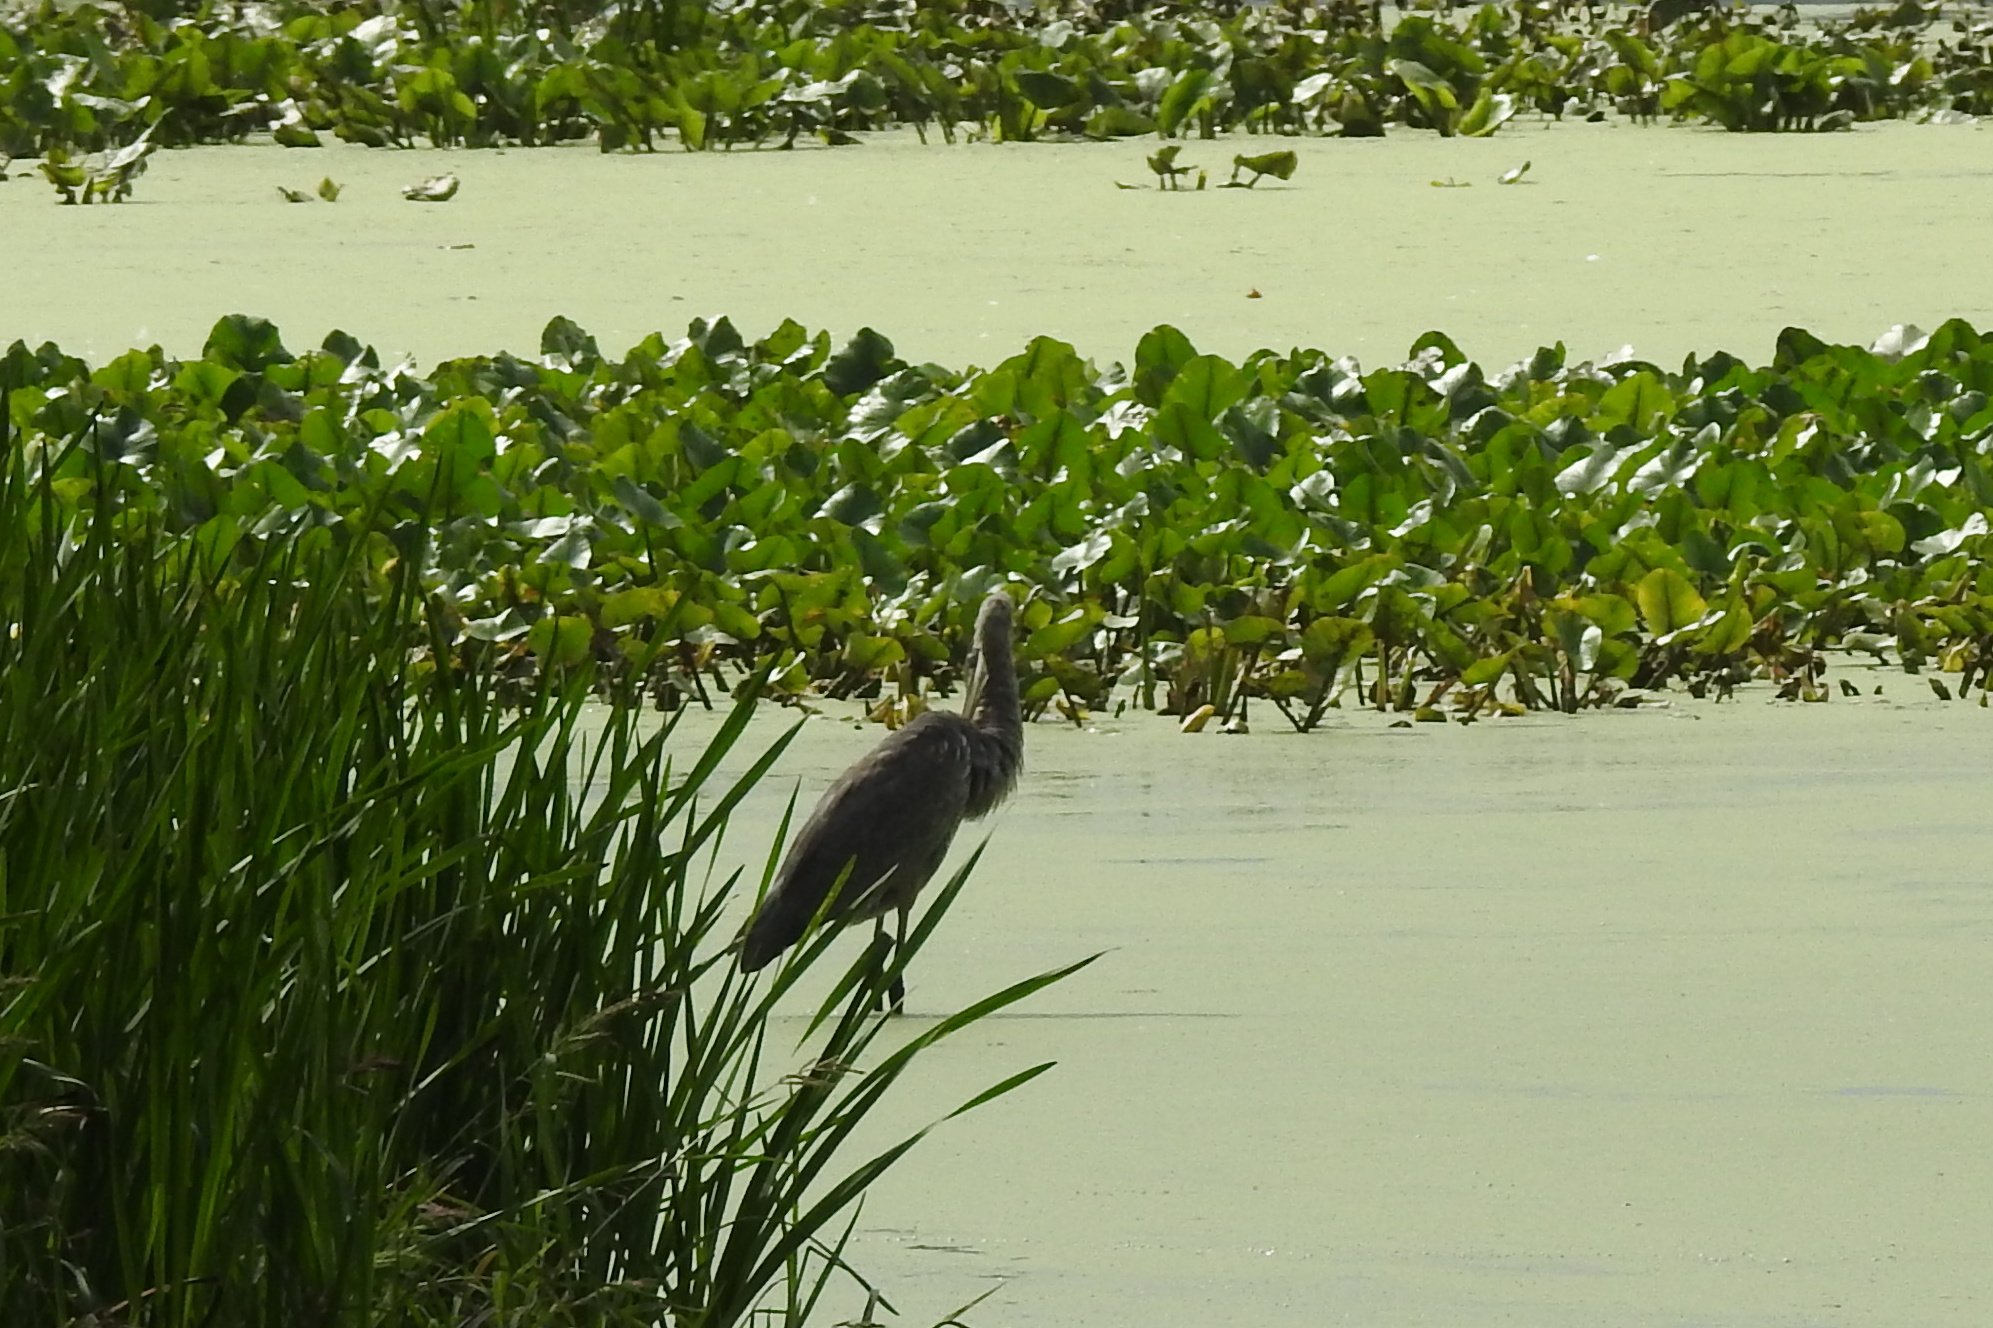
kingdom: Animalia
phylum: Chordata
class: Aves
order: Pelecaniformes
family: Ardeidae
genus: Ardea
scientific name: Ardea herodias
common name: Great blue heron
